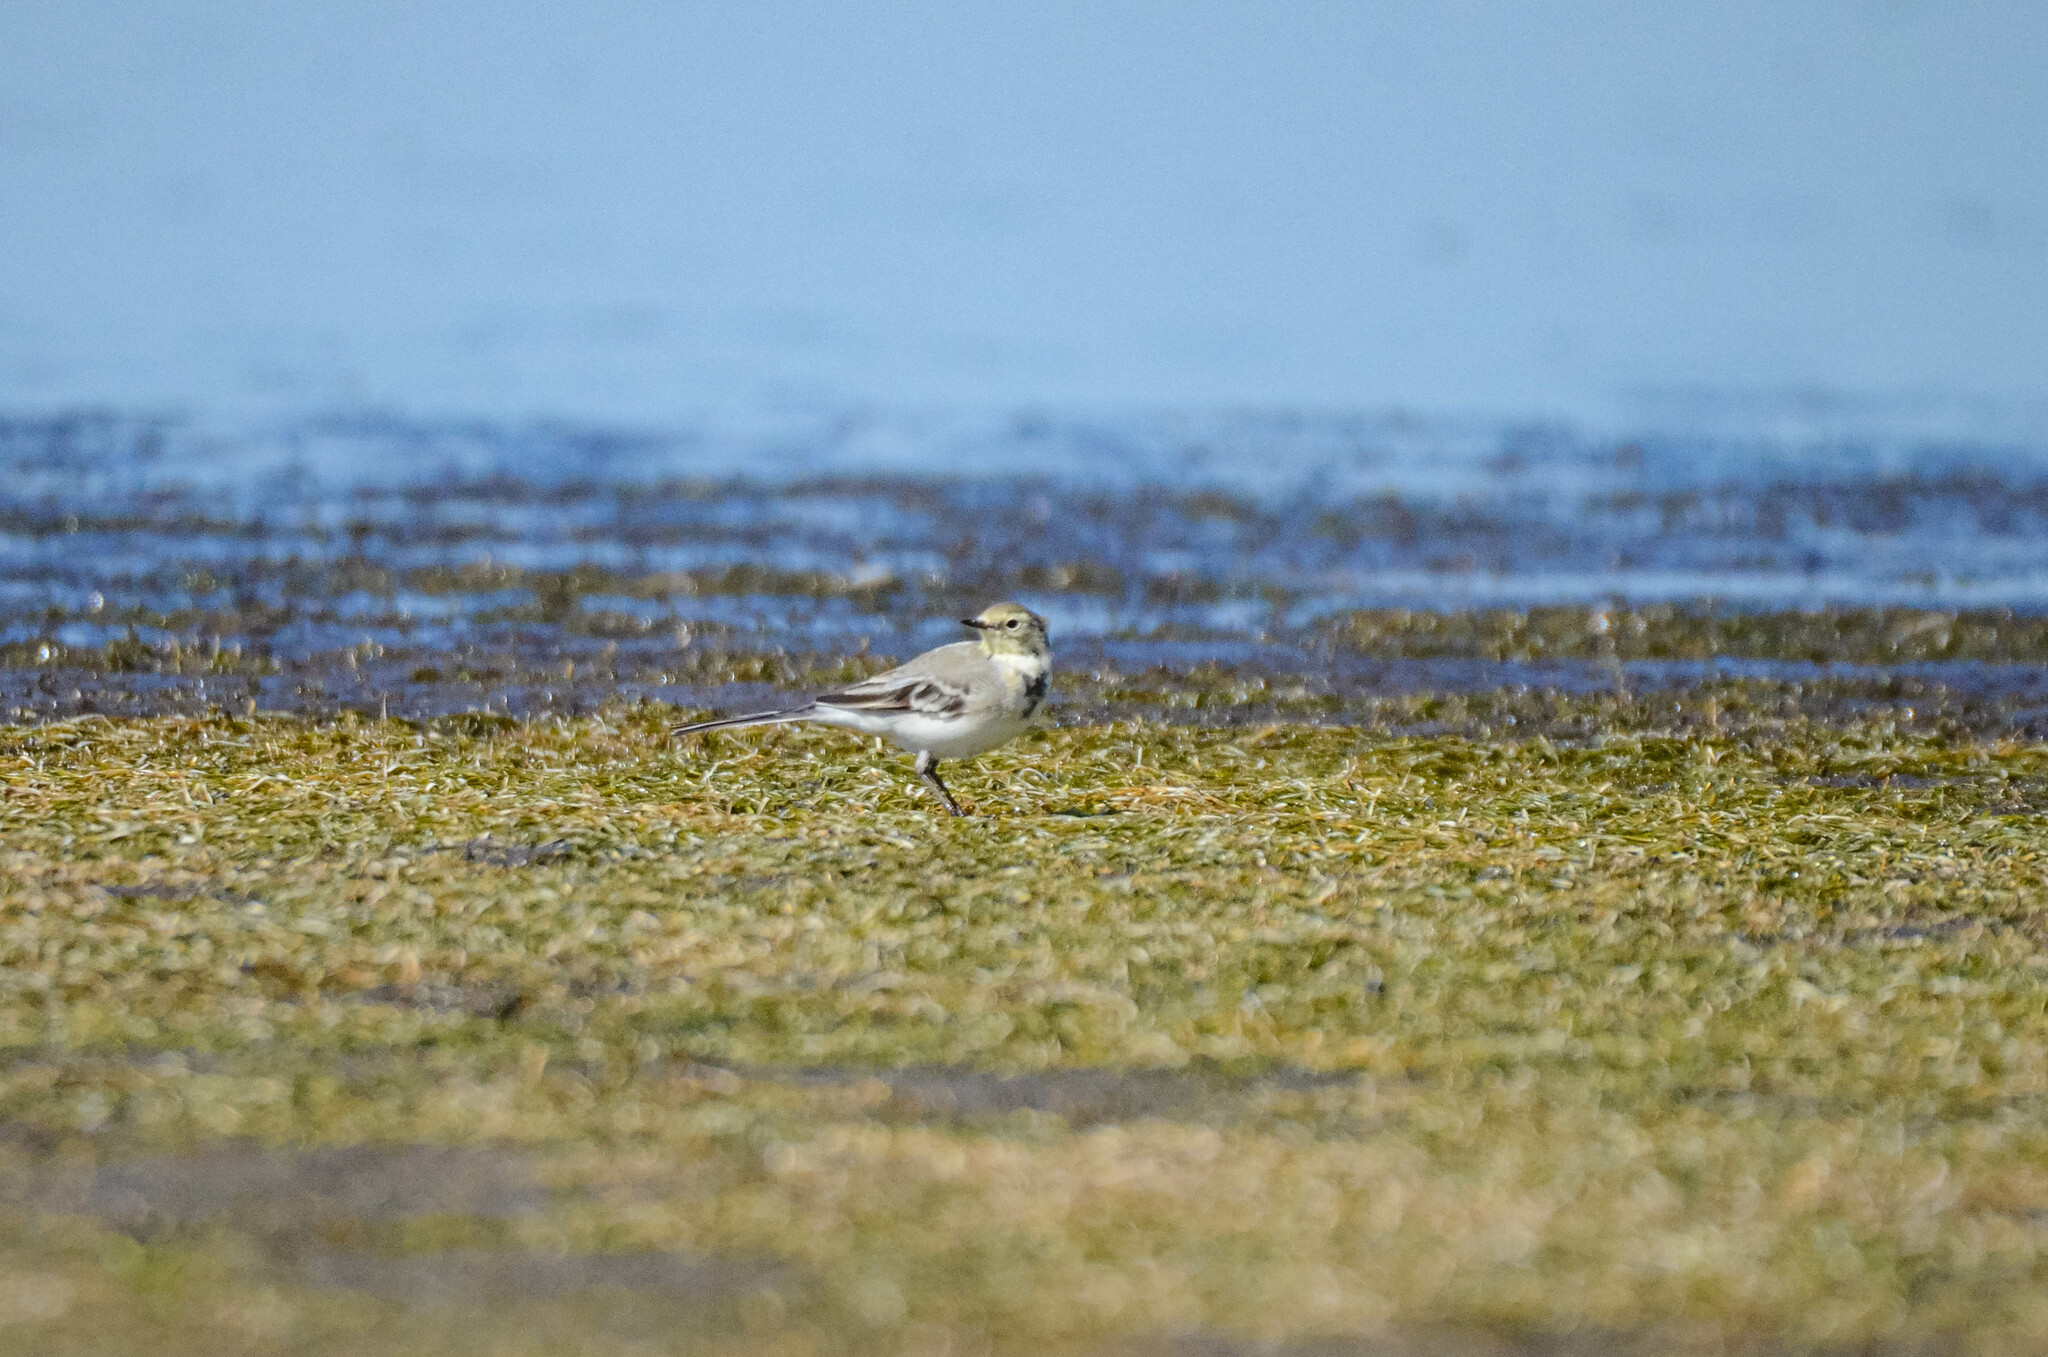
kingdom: Animalia
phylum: Chordata
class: Aves
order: Passeriformes
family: Motacillidae
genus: Motacilla
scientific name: Motacilla alba
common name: White wagtail
